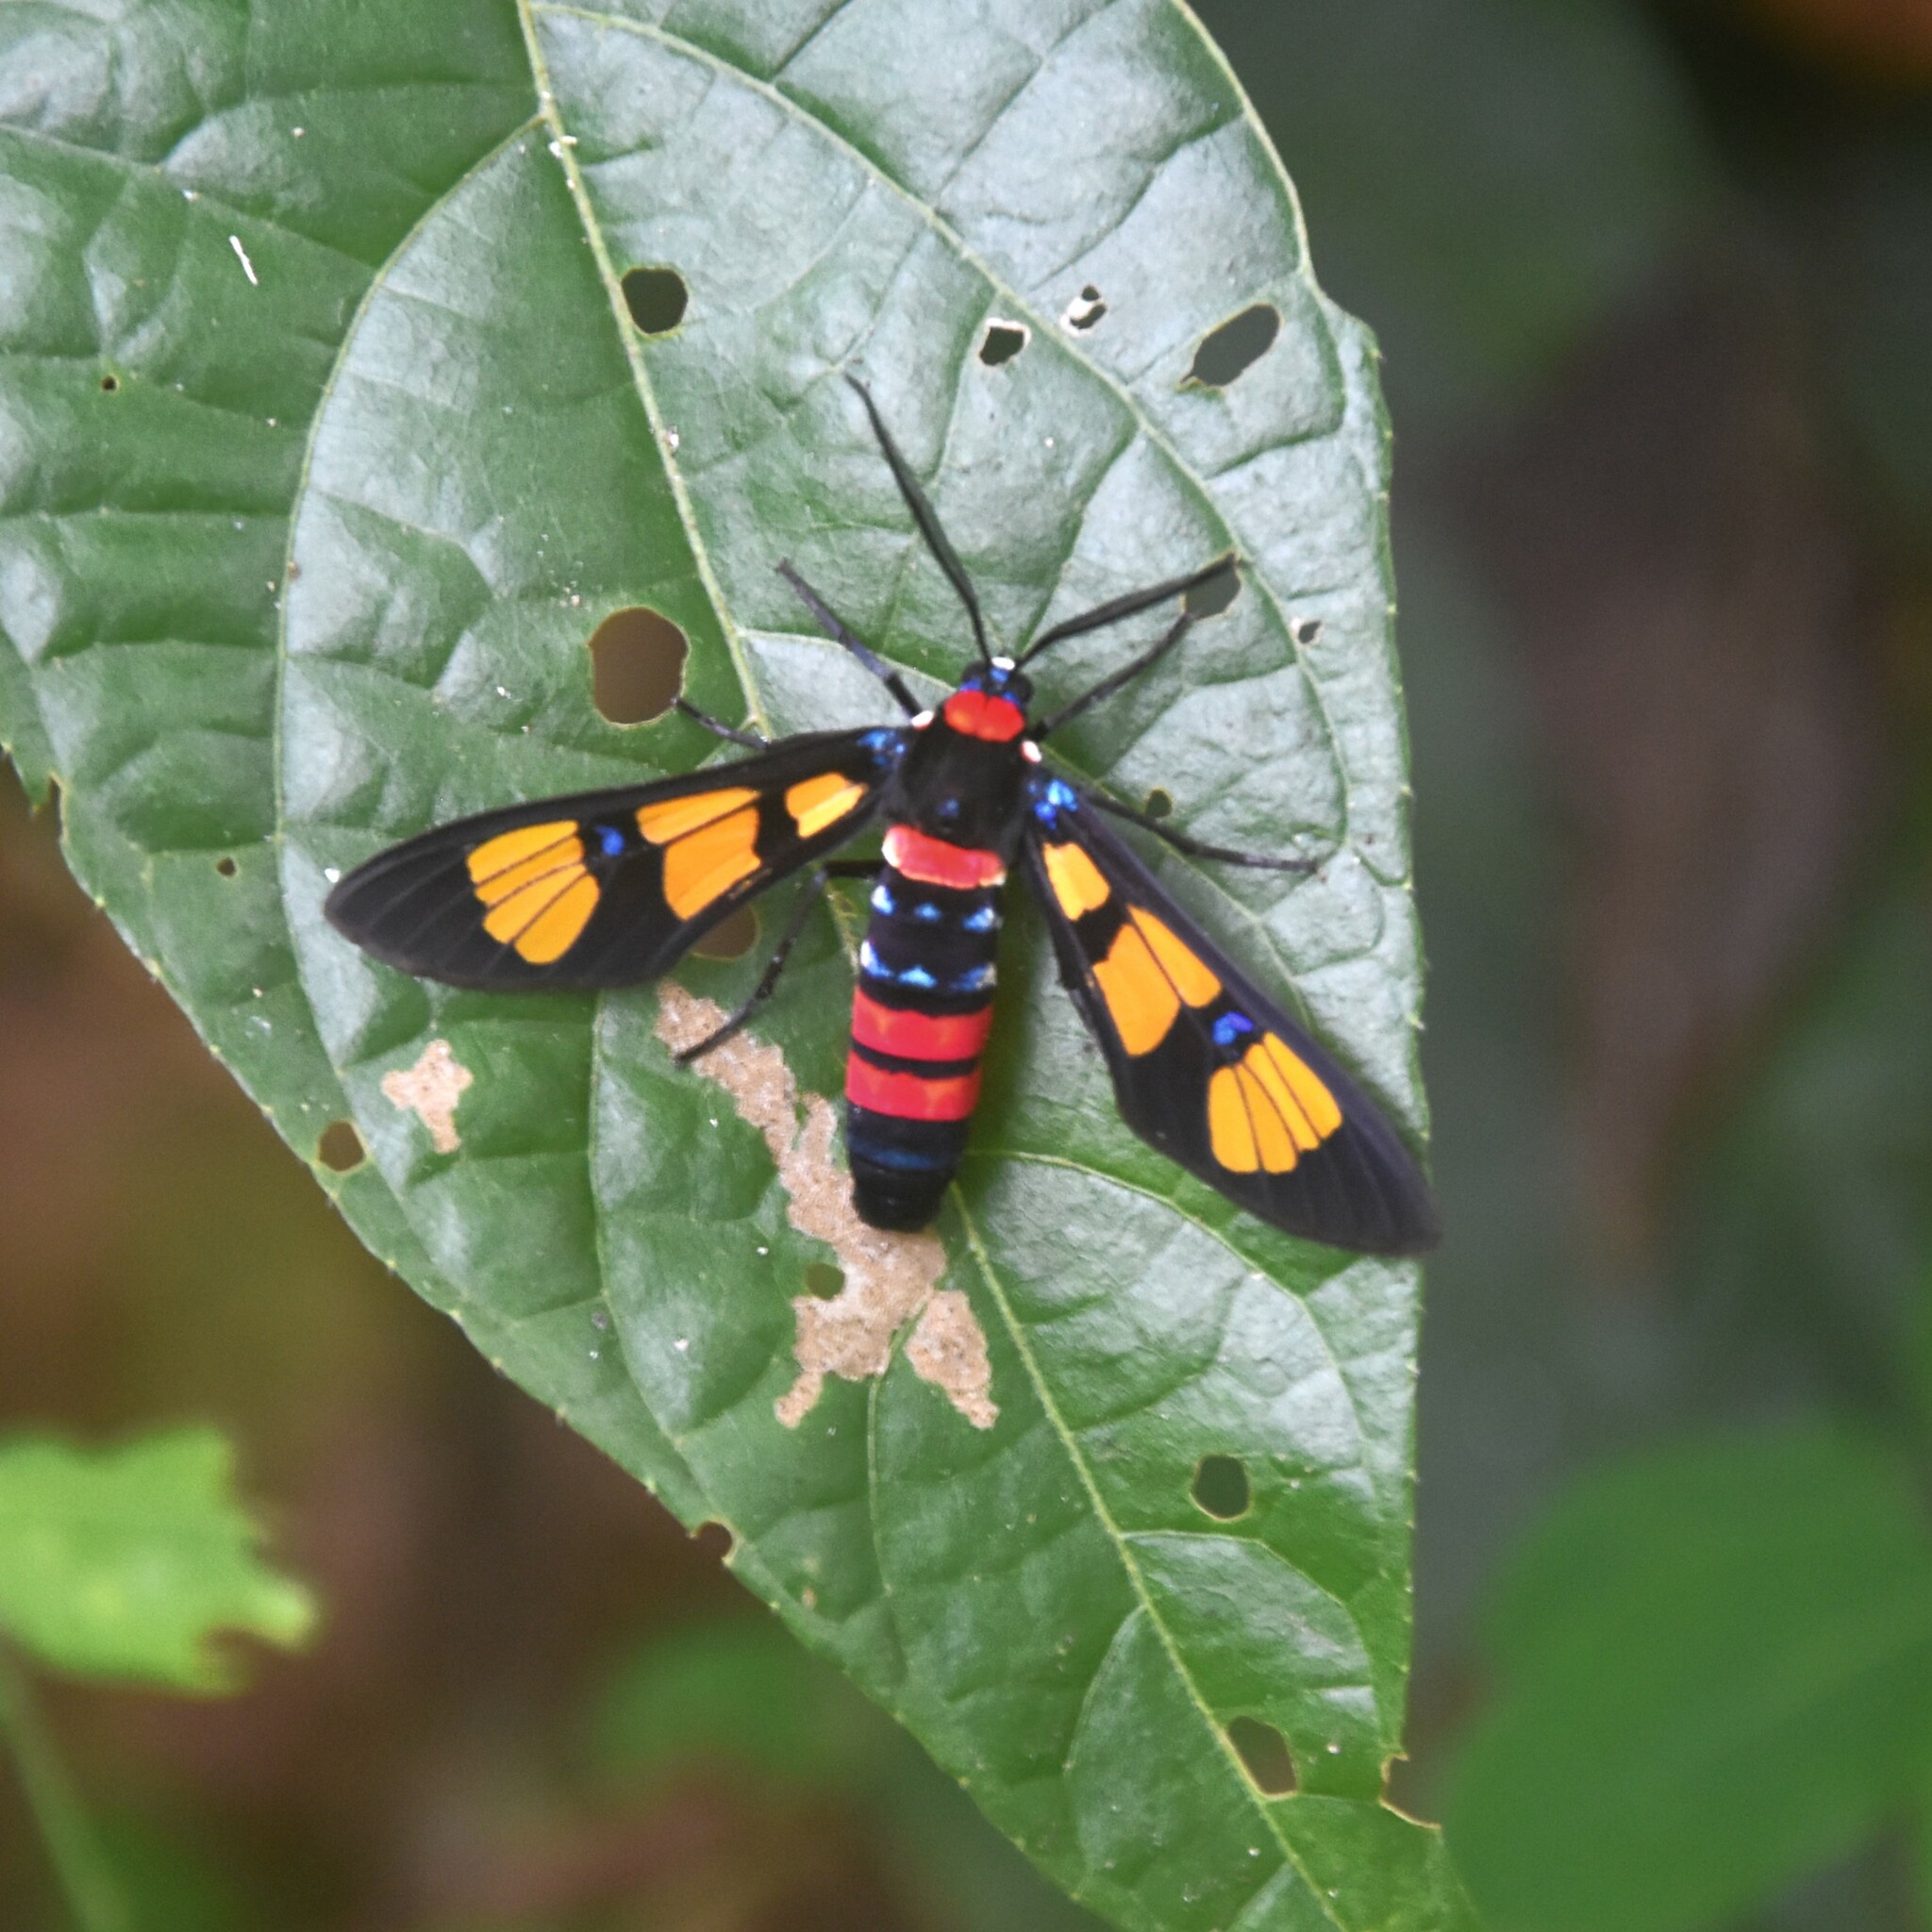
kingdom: Animalia
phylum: Arthropoda
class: Insecta
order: Lepidoptera
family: Erebidae
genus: Euchromia
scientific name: Euchromia polymena
